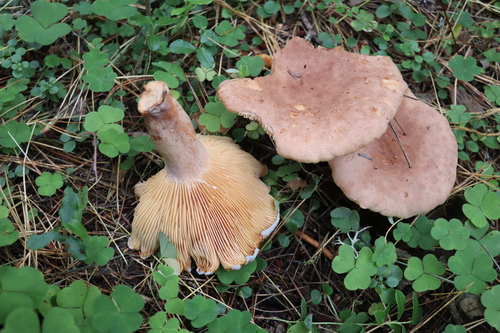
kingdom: Fungi
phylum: Basidiomycota
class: Agaricomycetes
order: Russulales
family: Russulaceae
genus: Lactarius
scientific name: Lactarius helvus
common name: Fenugreek milkcap
